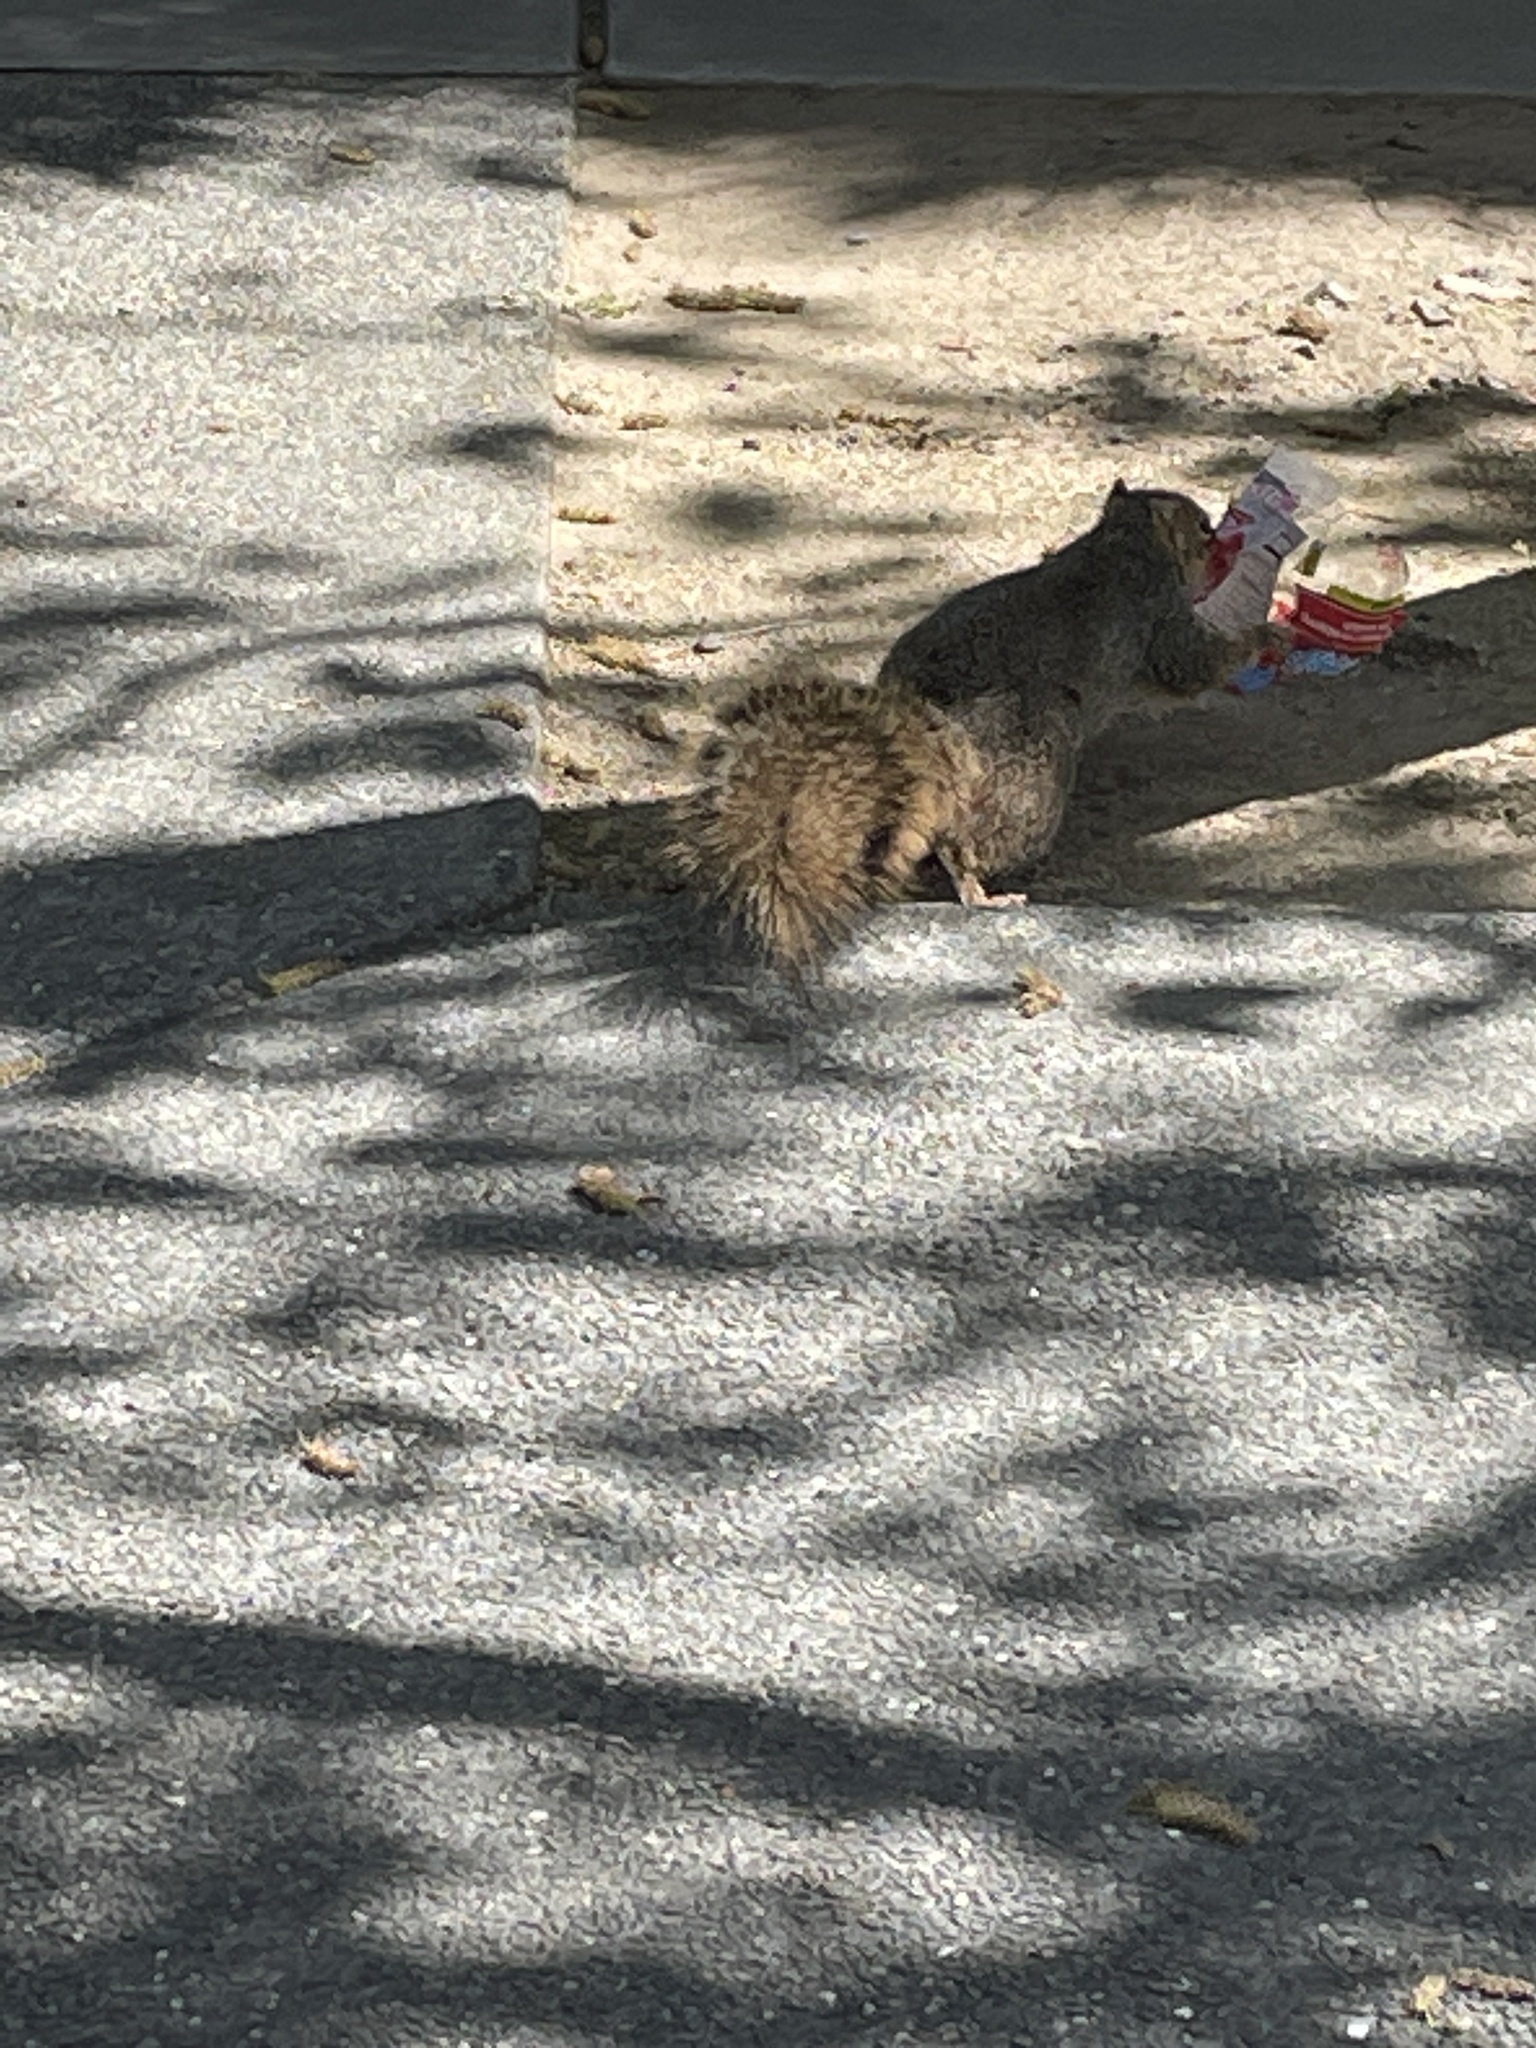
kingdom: Animalia
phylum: Chordata
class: Mammalia
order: Rodentia
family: Sciuridae
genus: Sciurus
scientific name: Sciurus niger
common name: Fox squirrel
